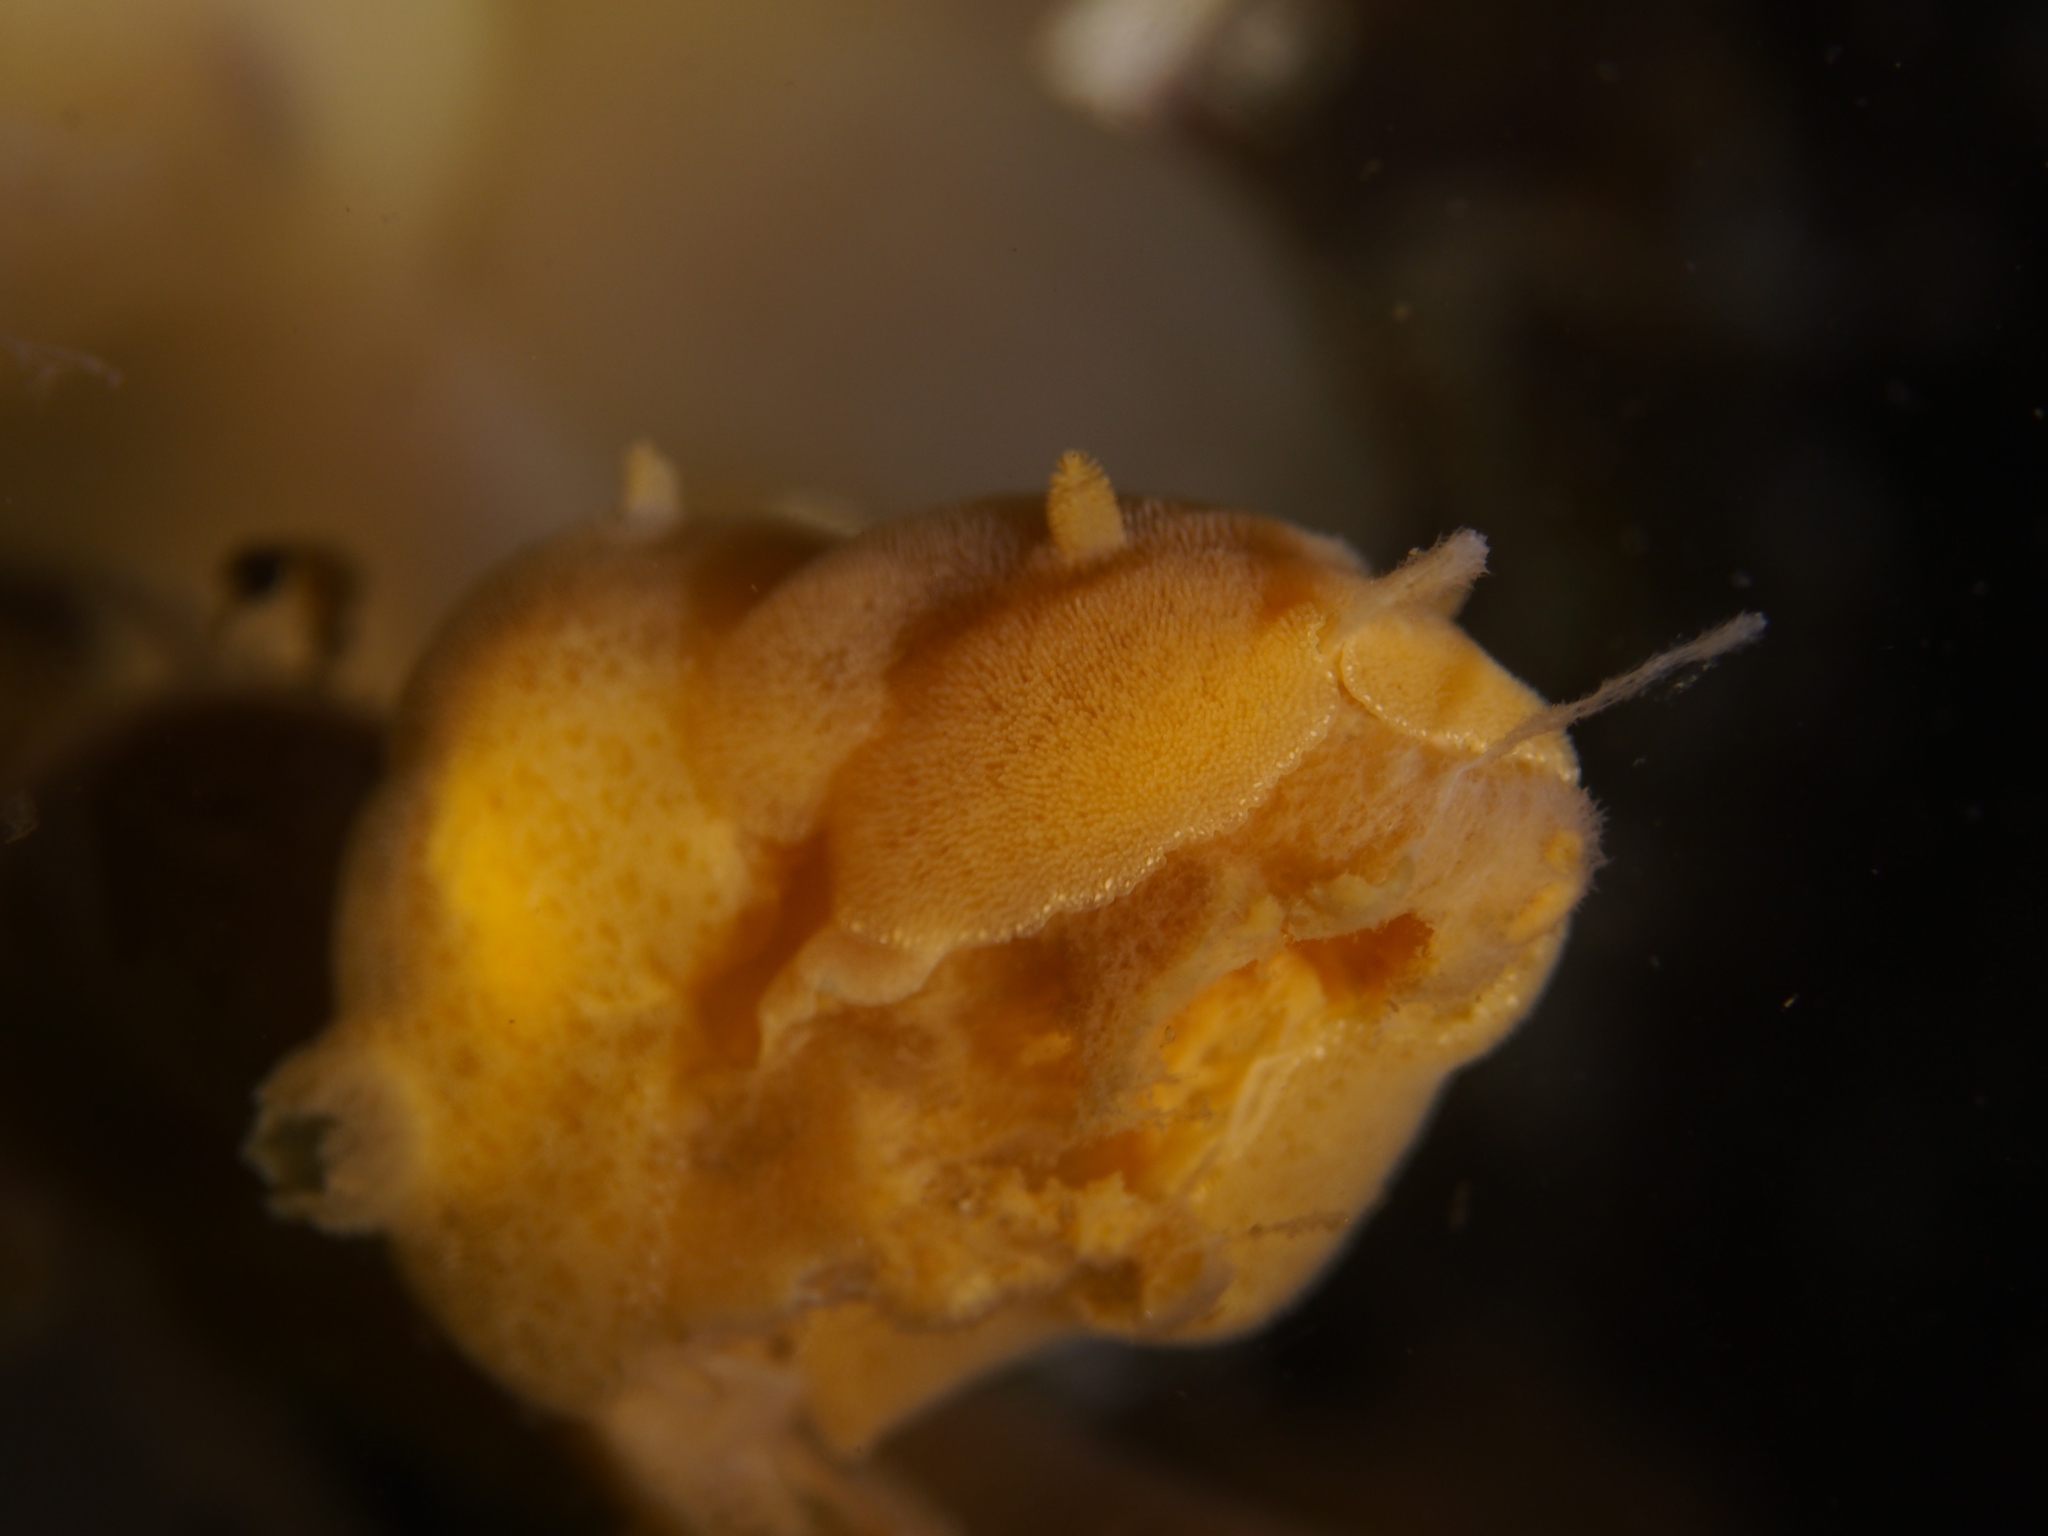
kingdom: Animalia
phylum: Mollusca
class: Gastropoda
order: Nudibranchia
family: Discodorididae
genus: Jorunna
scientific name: Jorunna tomentosa
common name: Grey sea slug
